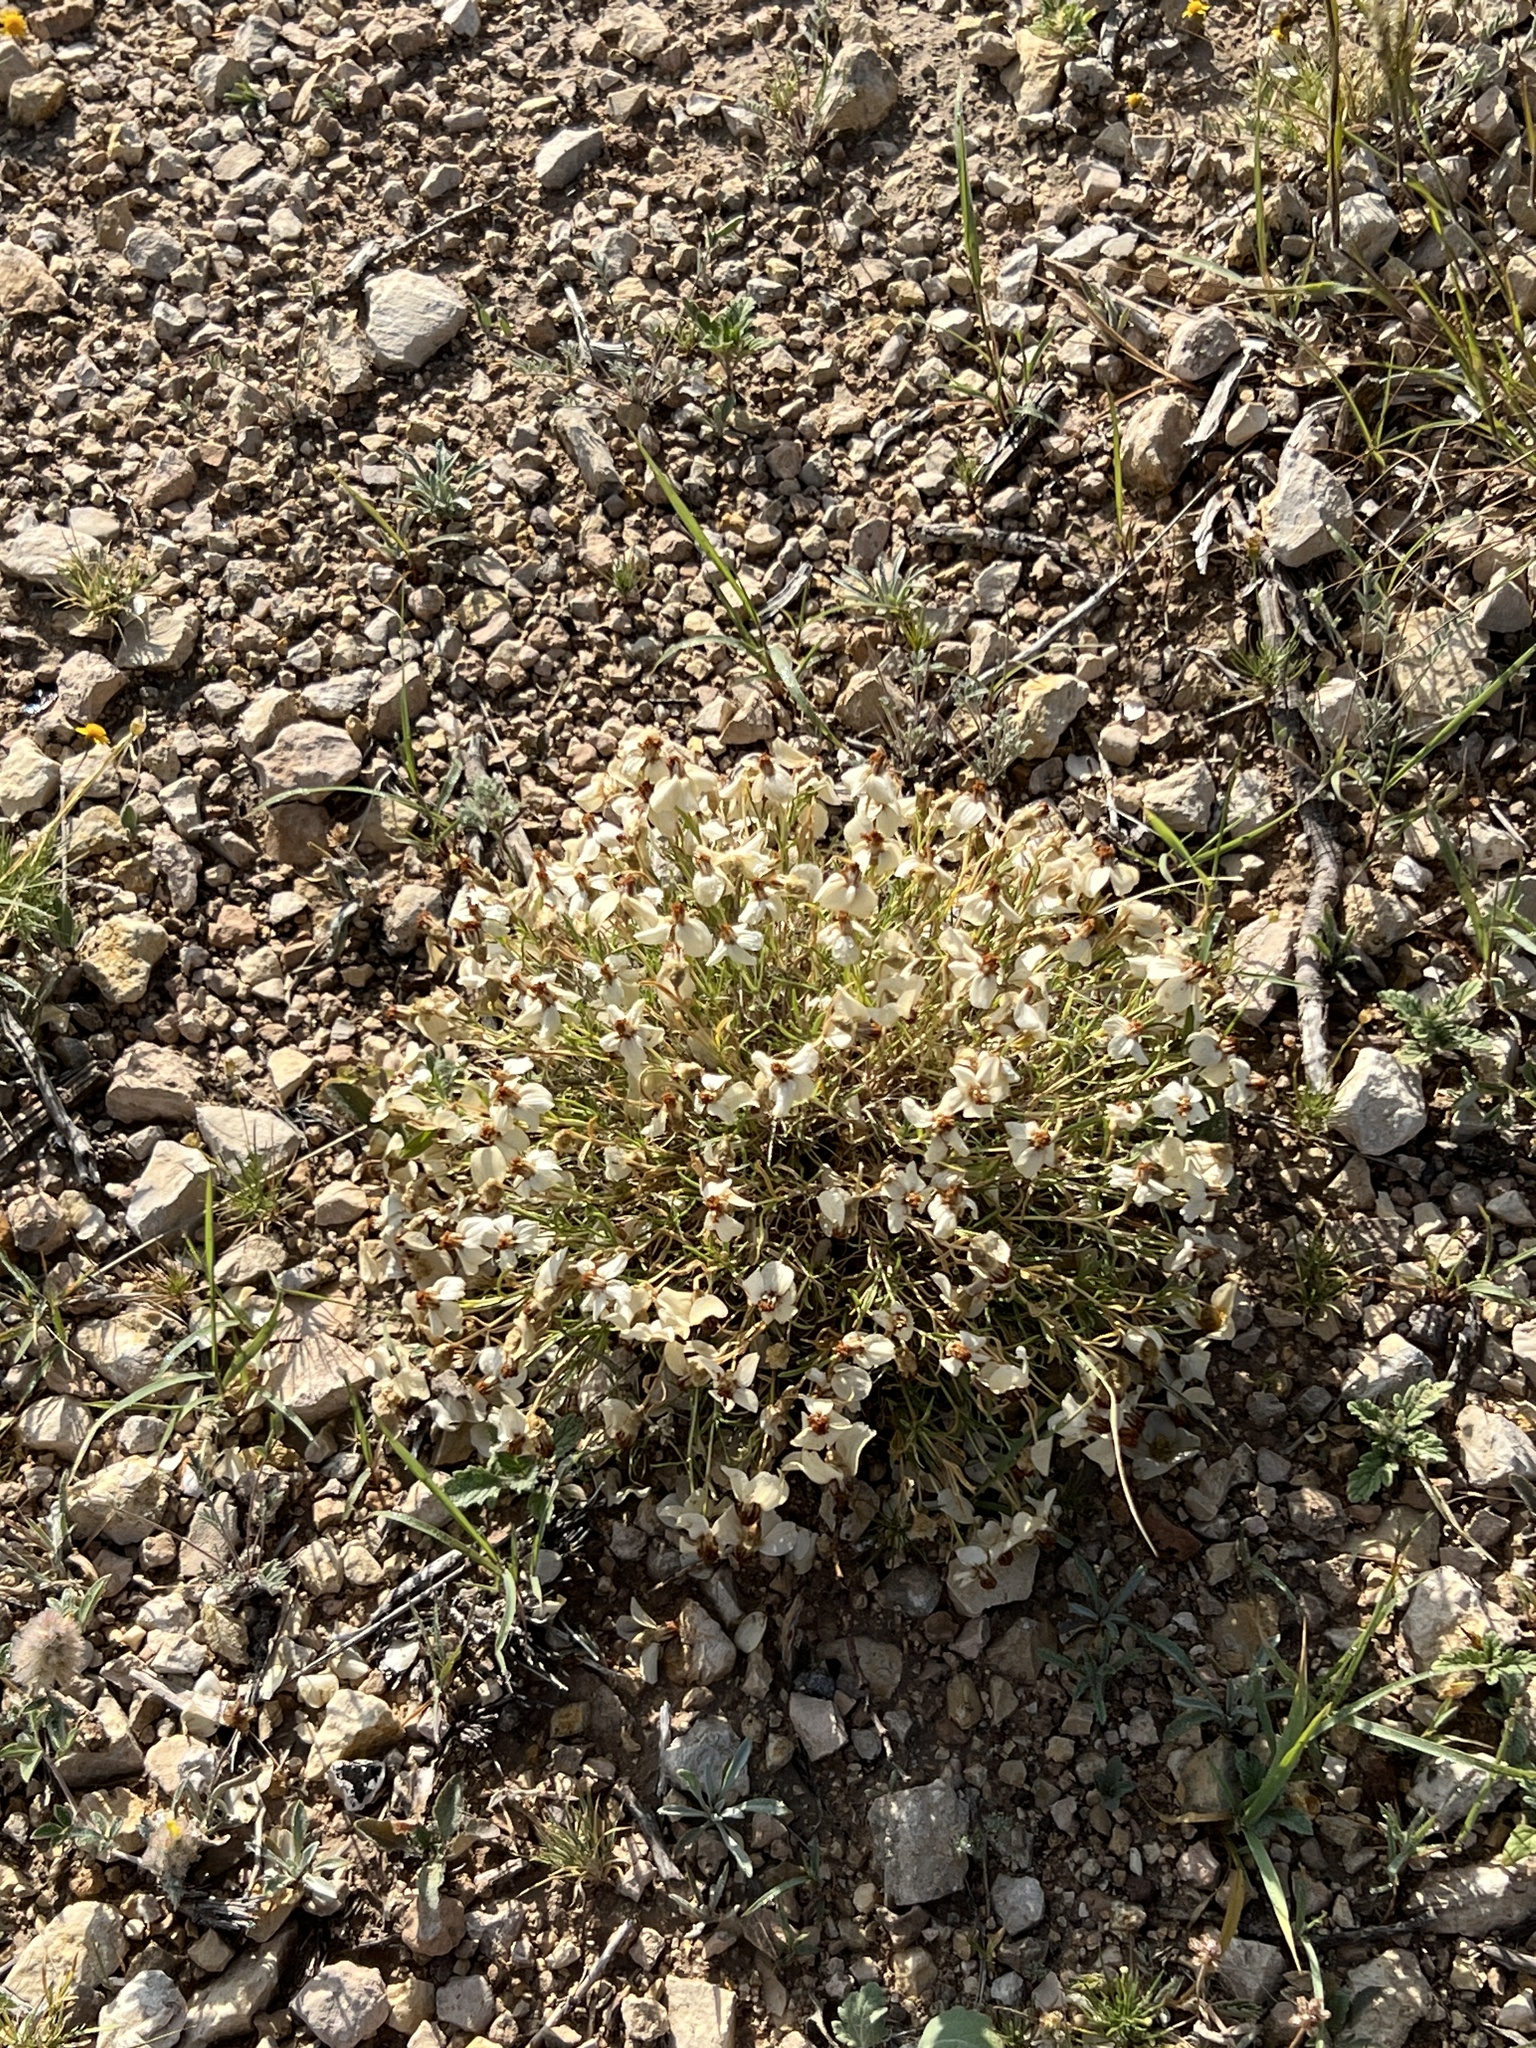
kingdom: Plantae
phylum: Tracheophyta
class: Magnoliopsida
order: Asterales
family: Asteraceae
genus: Zinnia
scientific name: Zinnia acerosa
